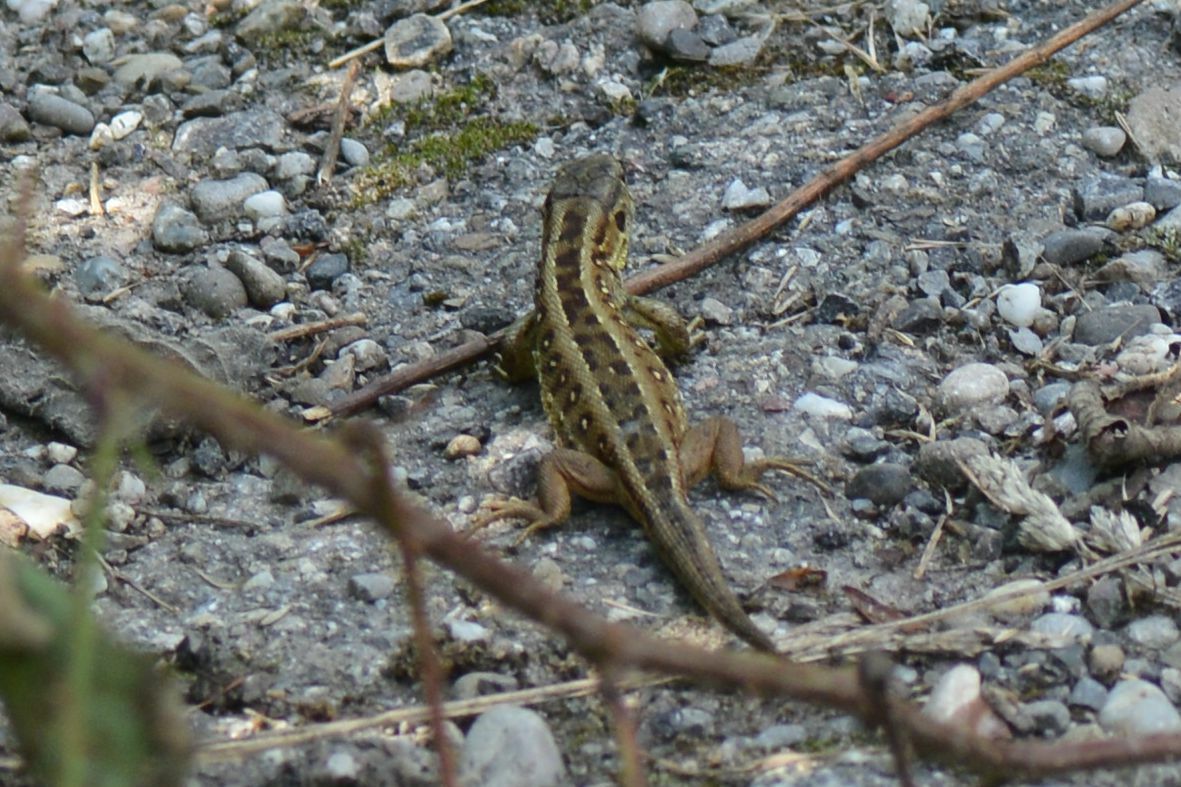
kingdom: Animalia
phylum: Chordata
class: Squamata
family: Lacertidae
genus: Lacerta
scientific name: Lacerta agilis
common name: Sand lizard
